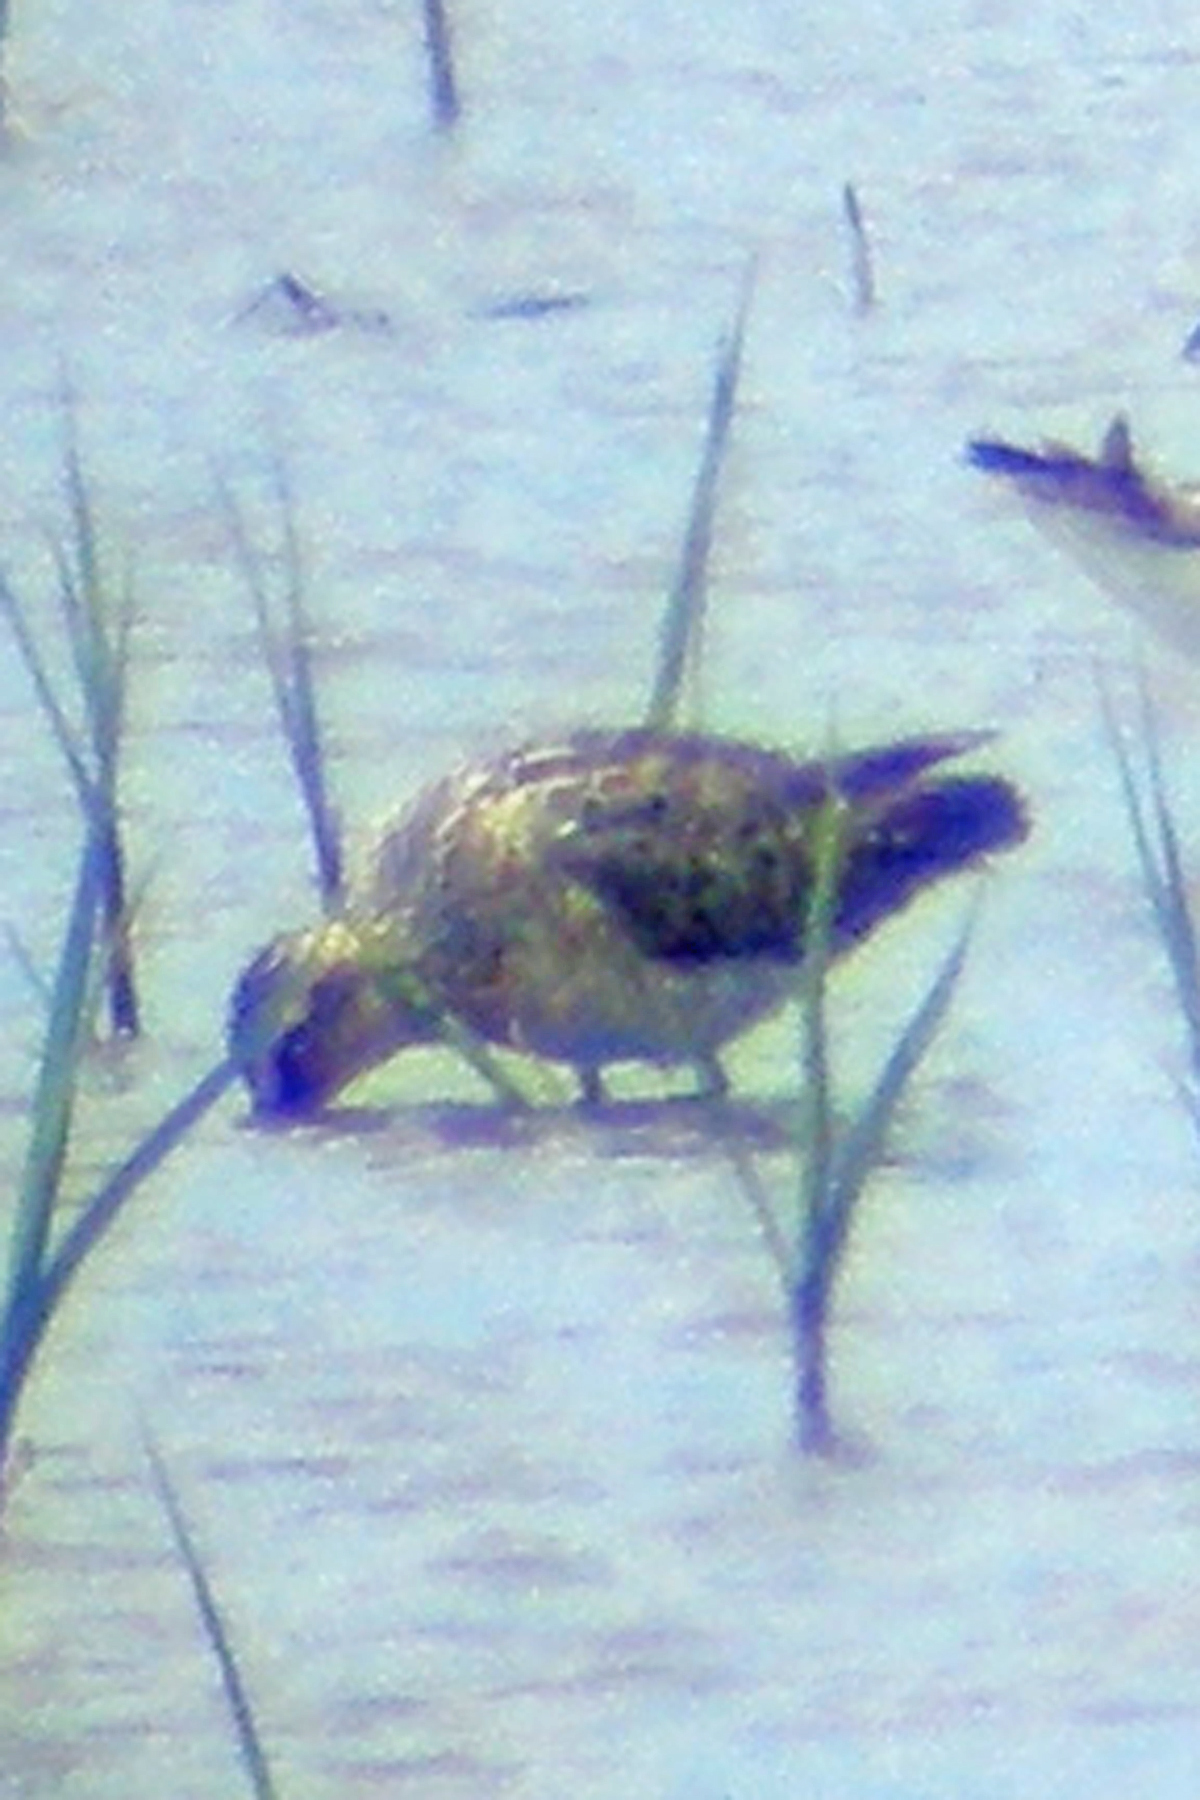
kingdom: Animalia
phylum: Chordata
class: Aves
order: Charadriiformes
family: Scolopacidae
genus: Limnodromus
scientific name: Limnodromus griseus
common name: Short-billed dowitcher
